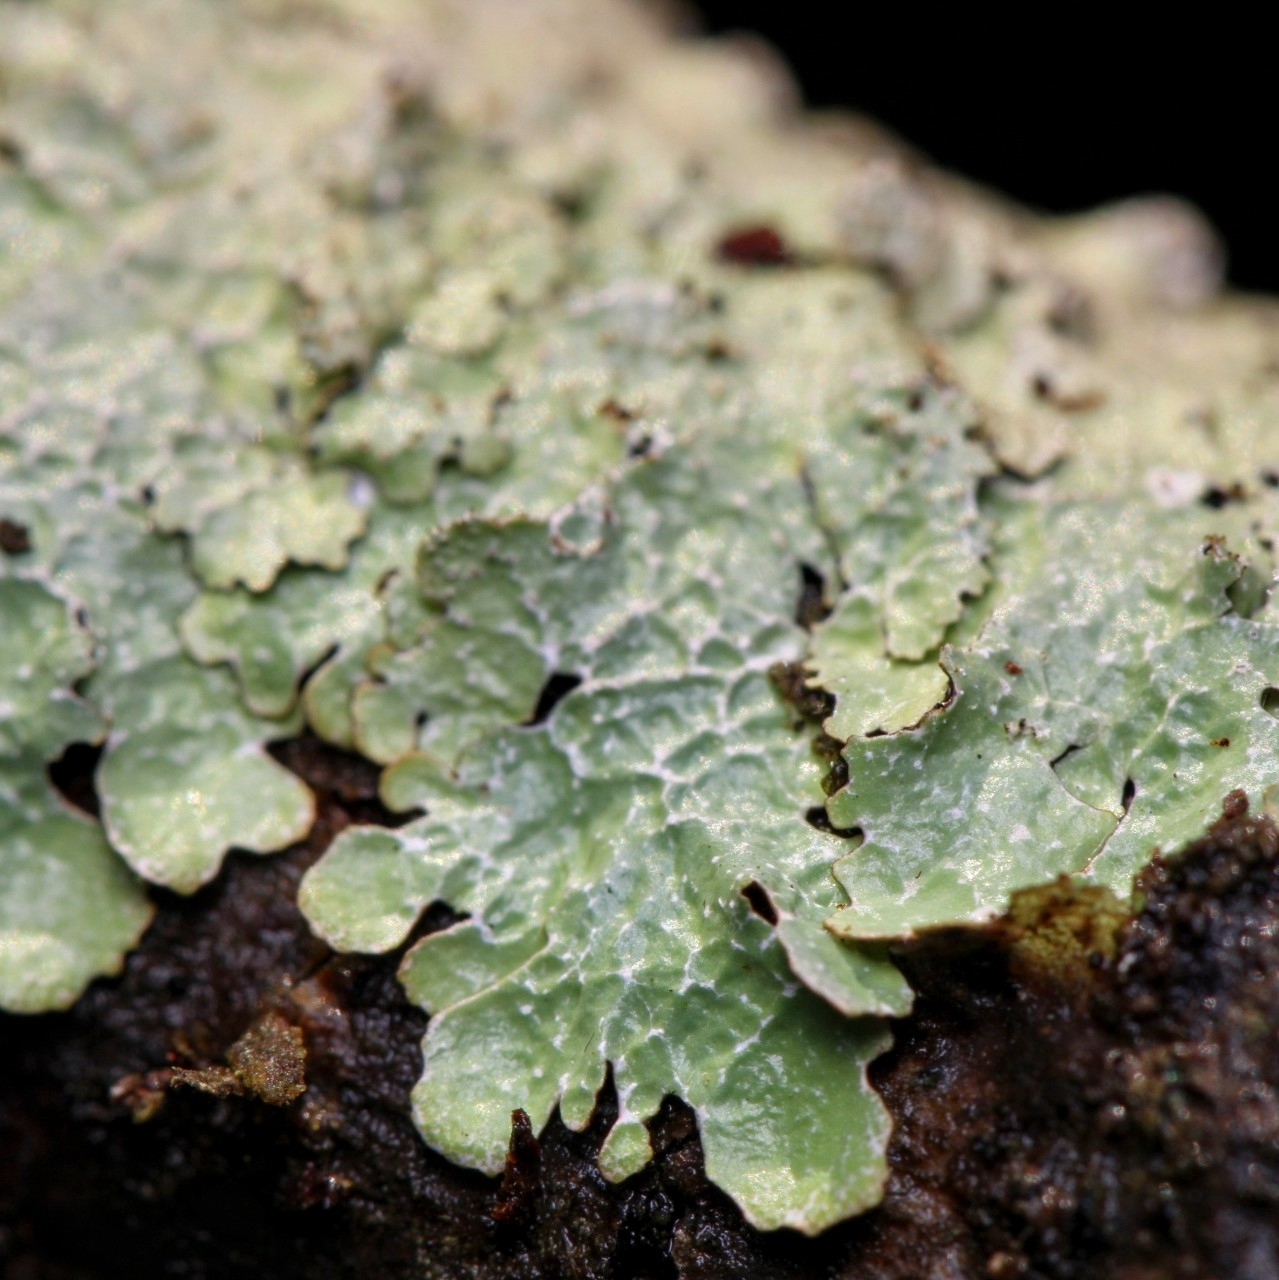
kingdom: Fungi
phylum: Ascomycota
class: Lecanoromycetes
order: Lecanorales
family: Parmeliaceae
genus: Parmelia
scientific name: Parmelia sulcata
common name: Netted shield lichen
